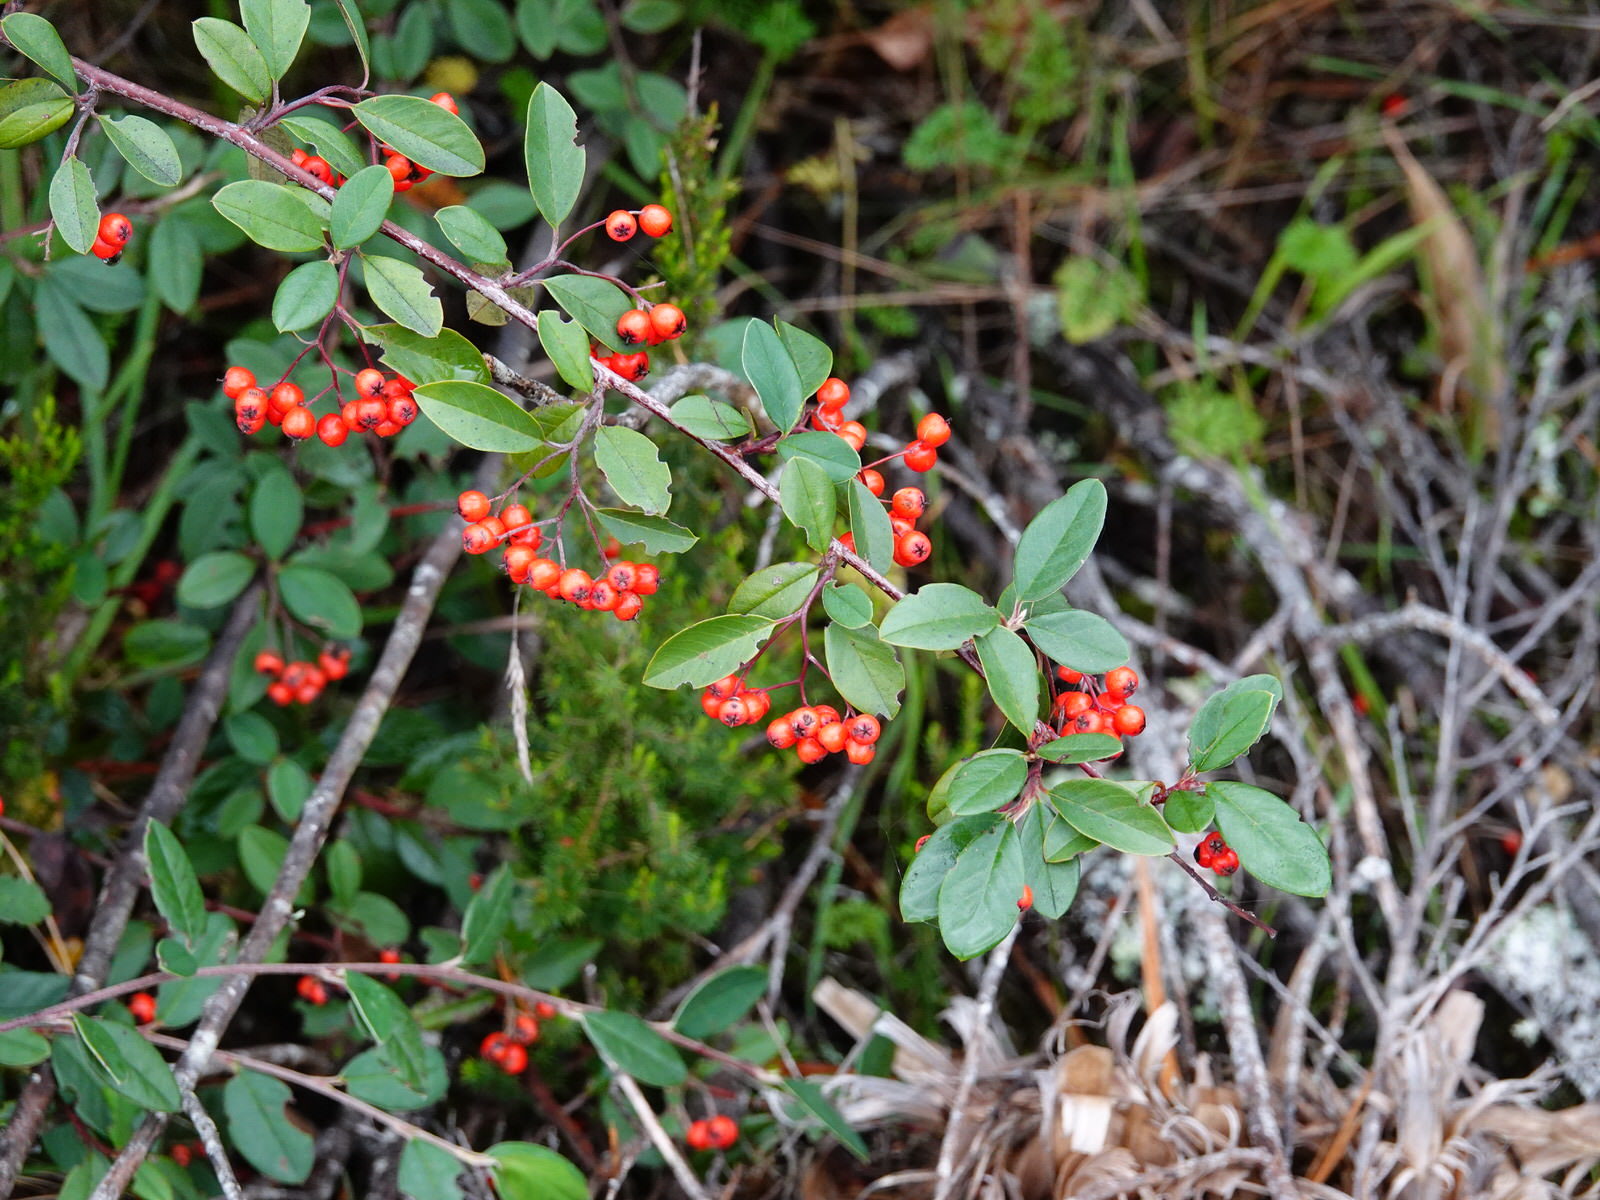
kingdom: Plantae
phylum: Tracheophyta
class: Magnoliopsida
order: Rosales
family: Rosaceae
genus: Cotoneaster
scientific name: Cotoneaster glaucophyllus
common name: Glaucous cotoneaster
